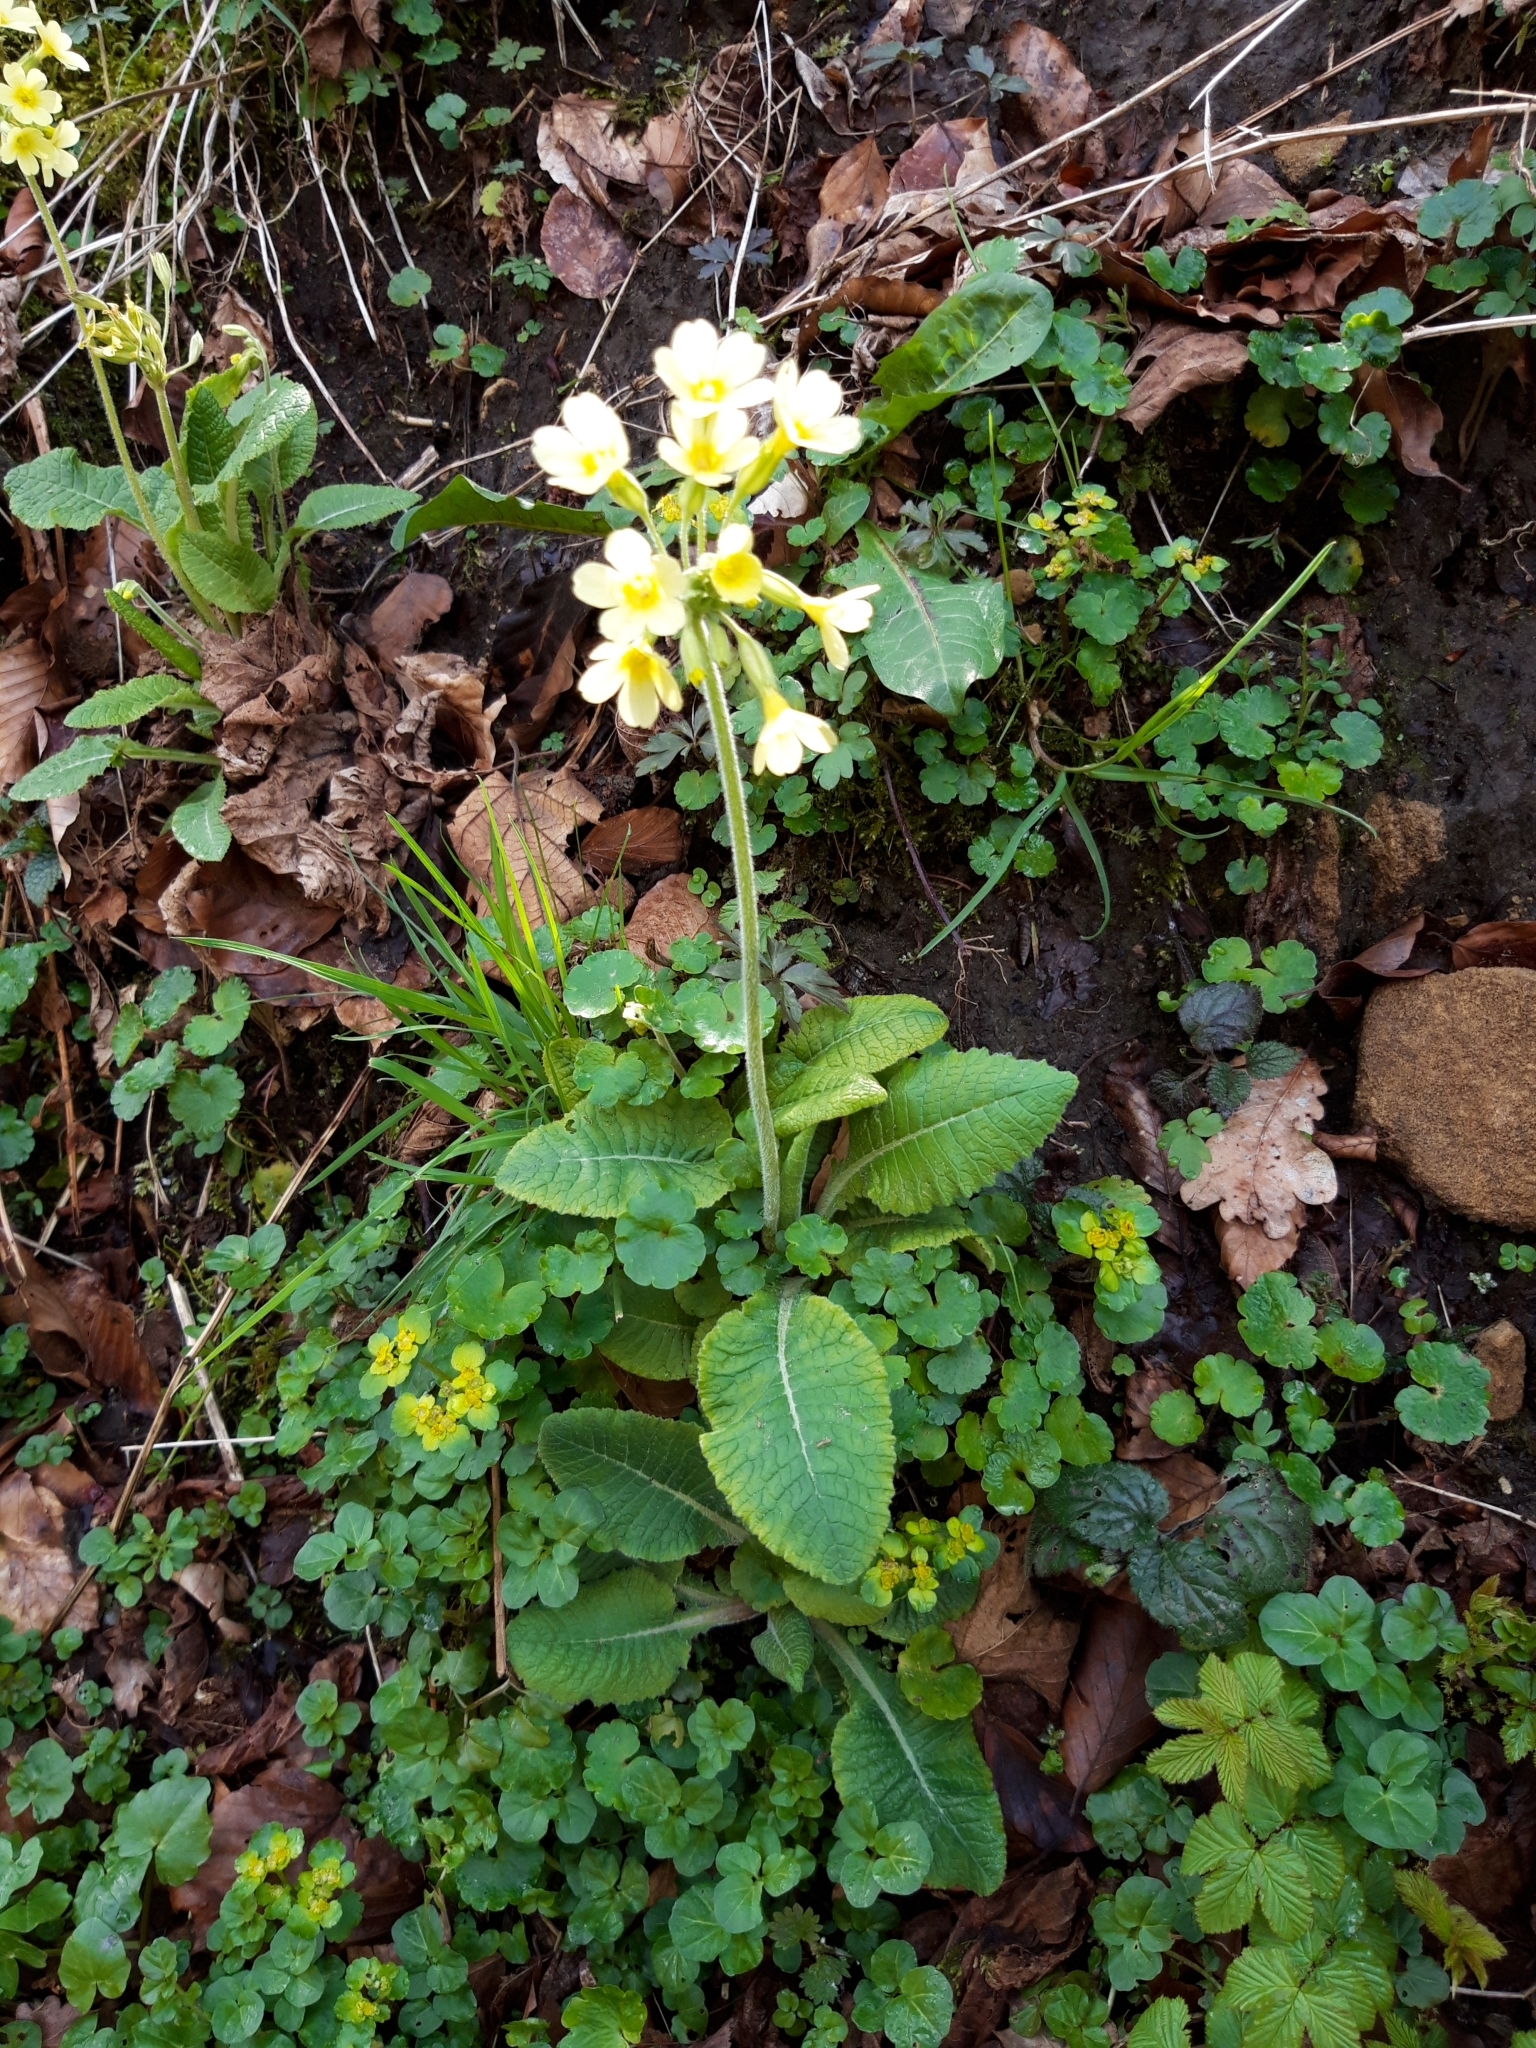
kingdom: Plantae
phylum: Tracheophyta
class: Magnoliopsida
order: Ericales
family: Primulaceae
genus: Primula
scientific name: Primula elatior
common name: Oxlip
